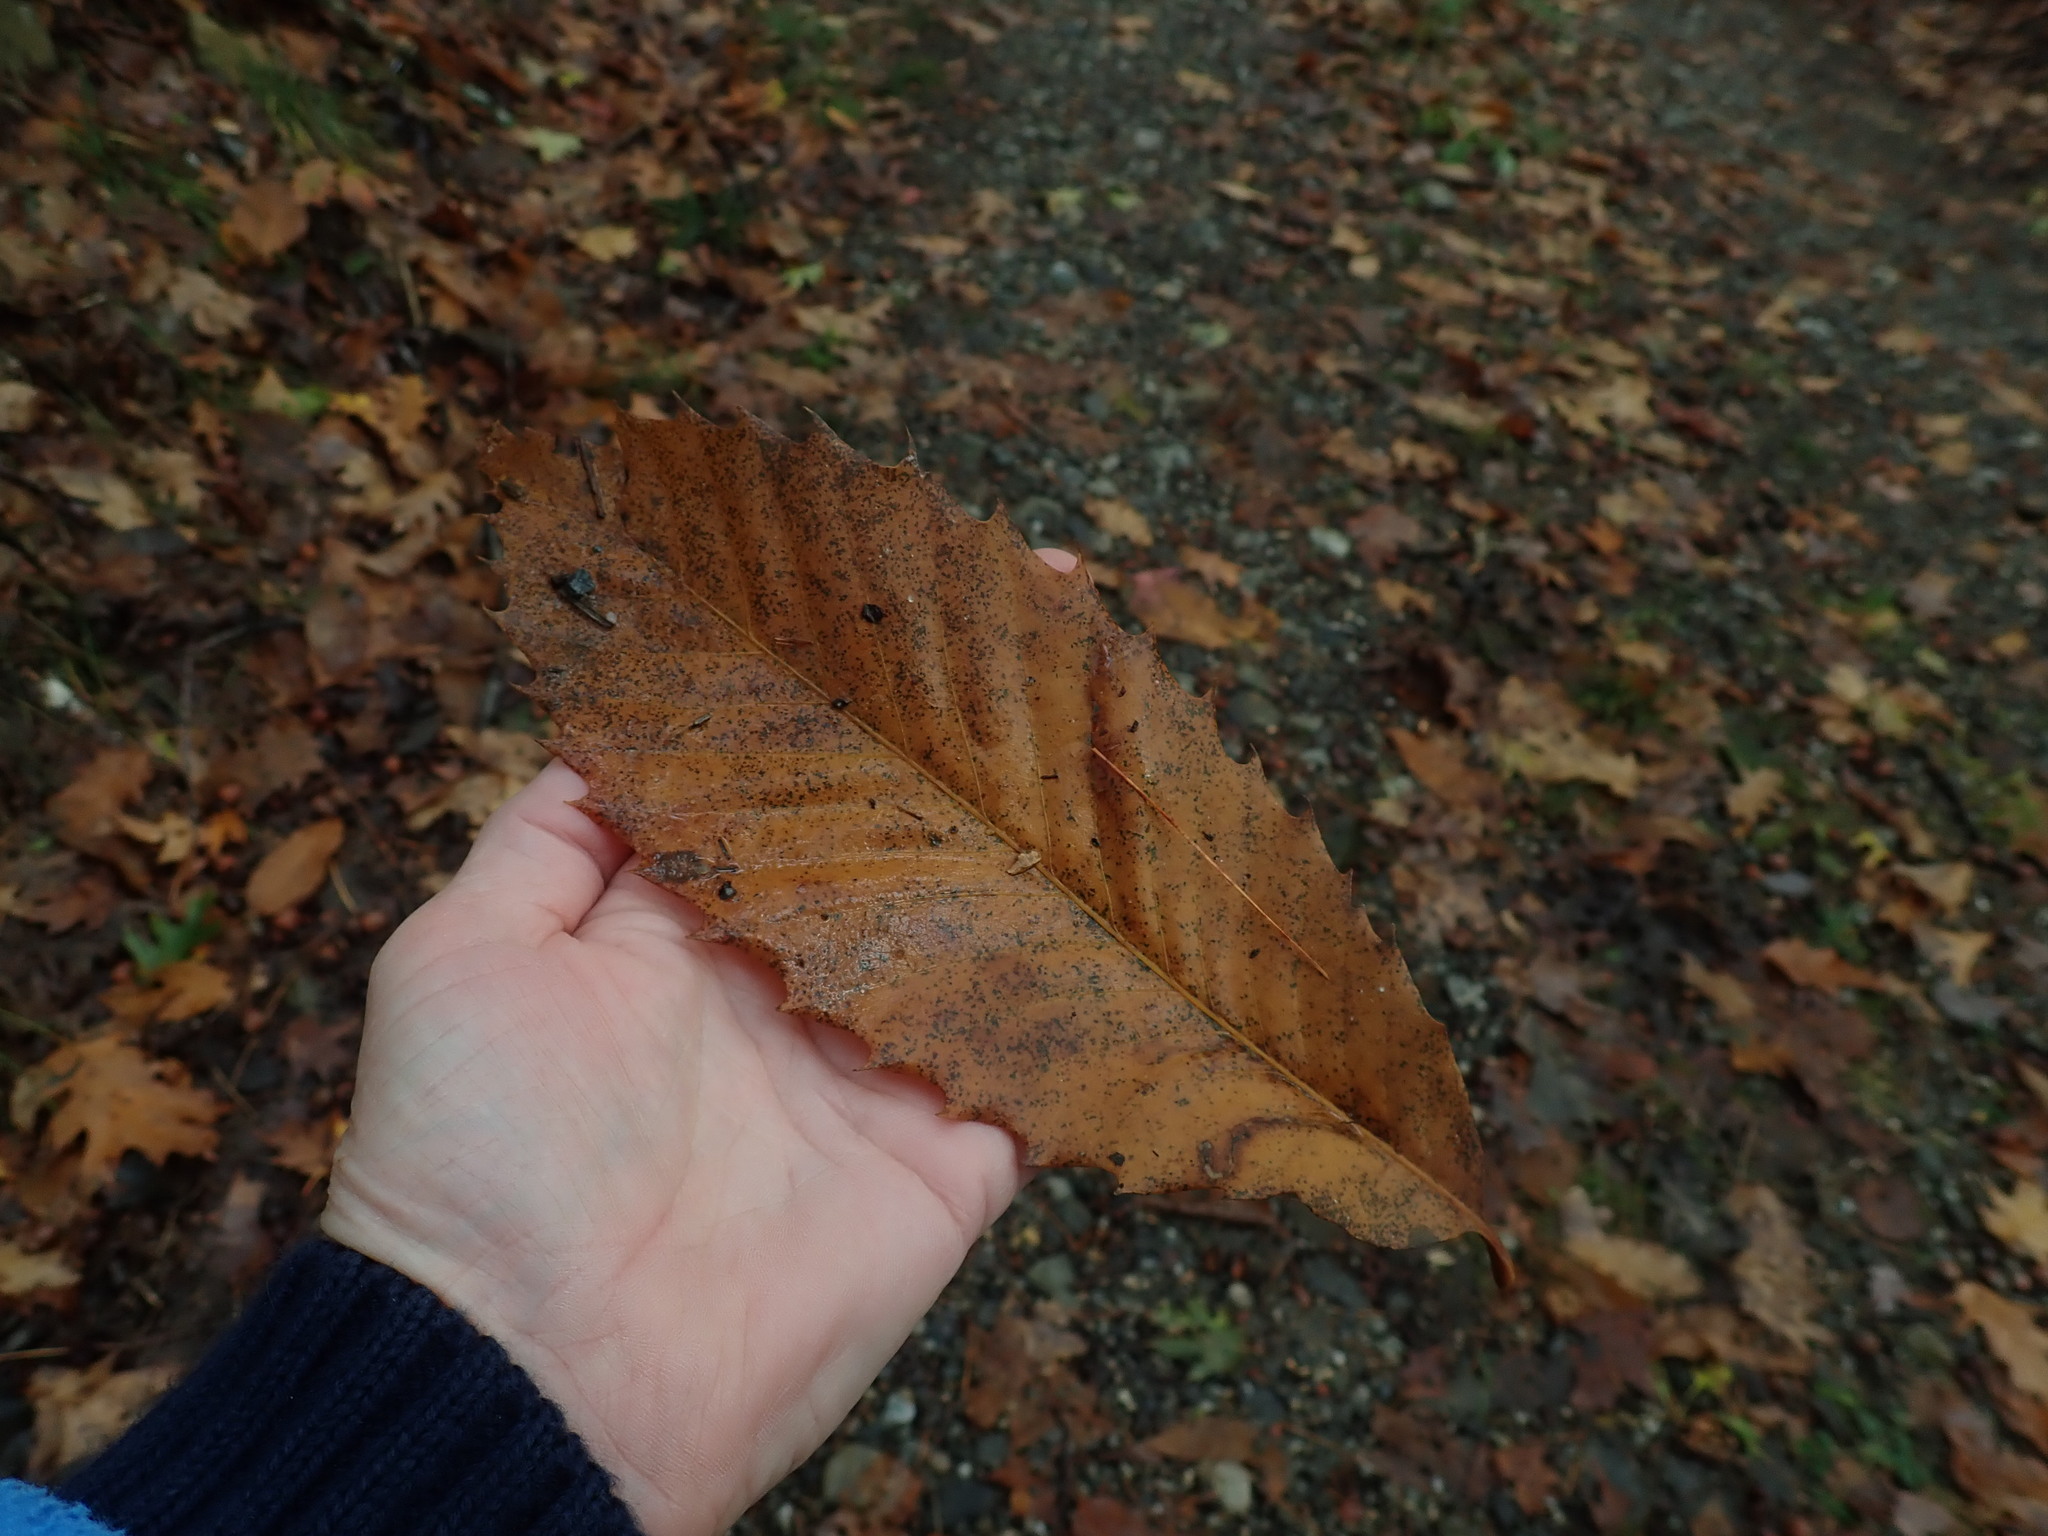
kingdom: Plantae
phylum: Tracheophyta
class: Magnoliopsida
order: Fagales
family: Fagaceae
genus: Castanea
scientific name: Castanea dentata
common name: American chestnut
